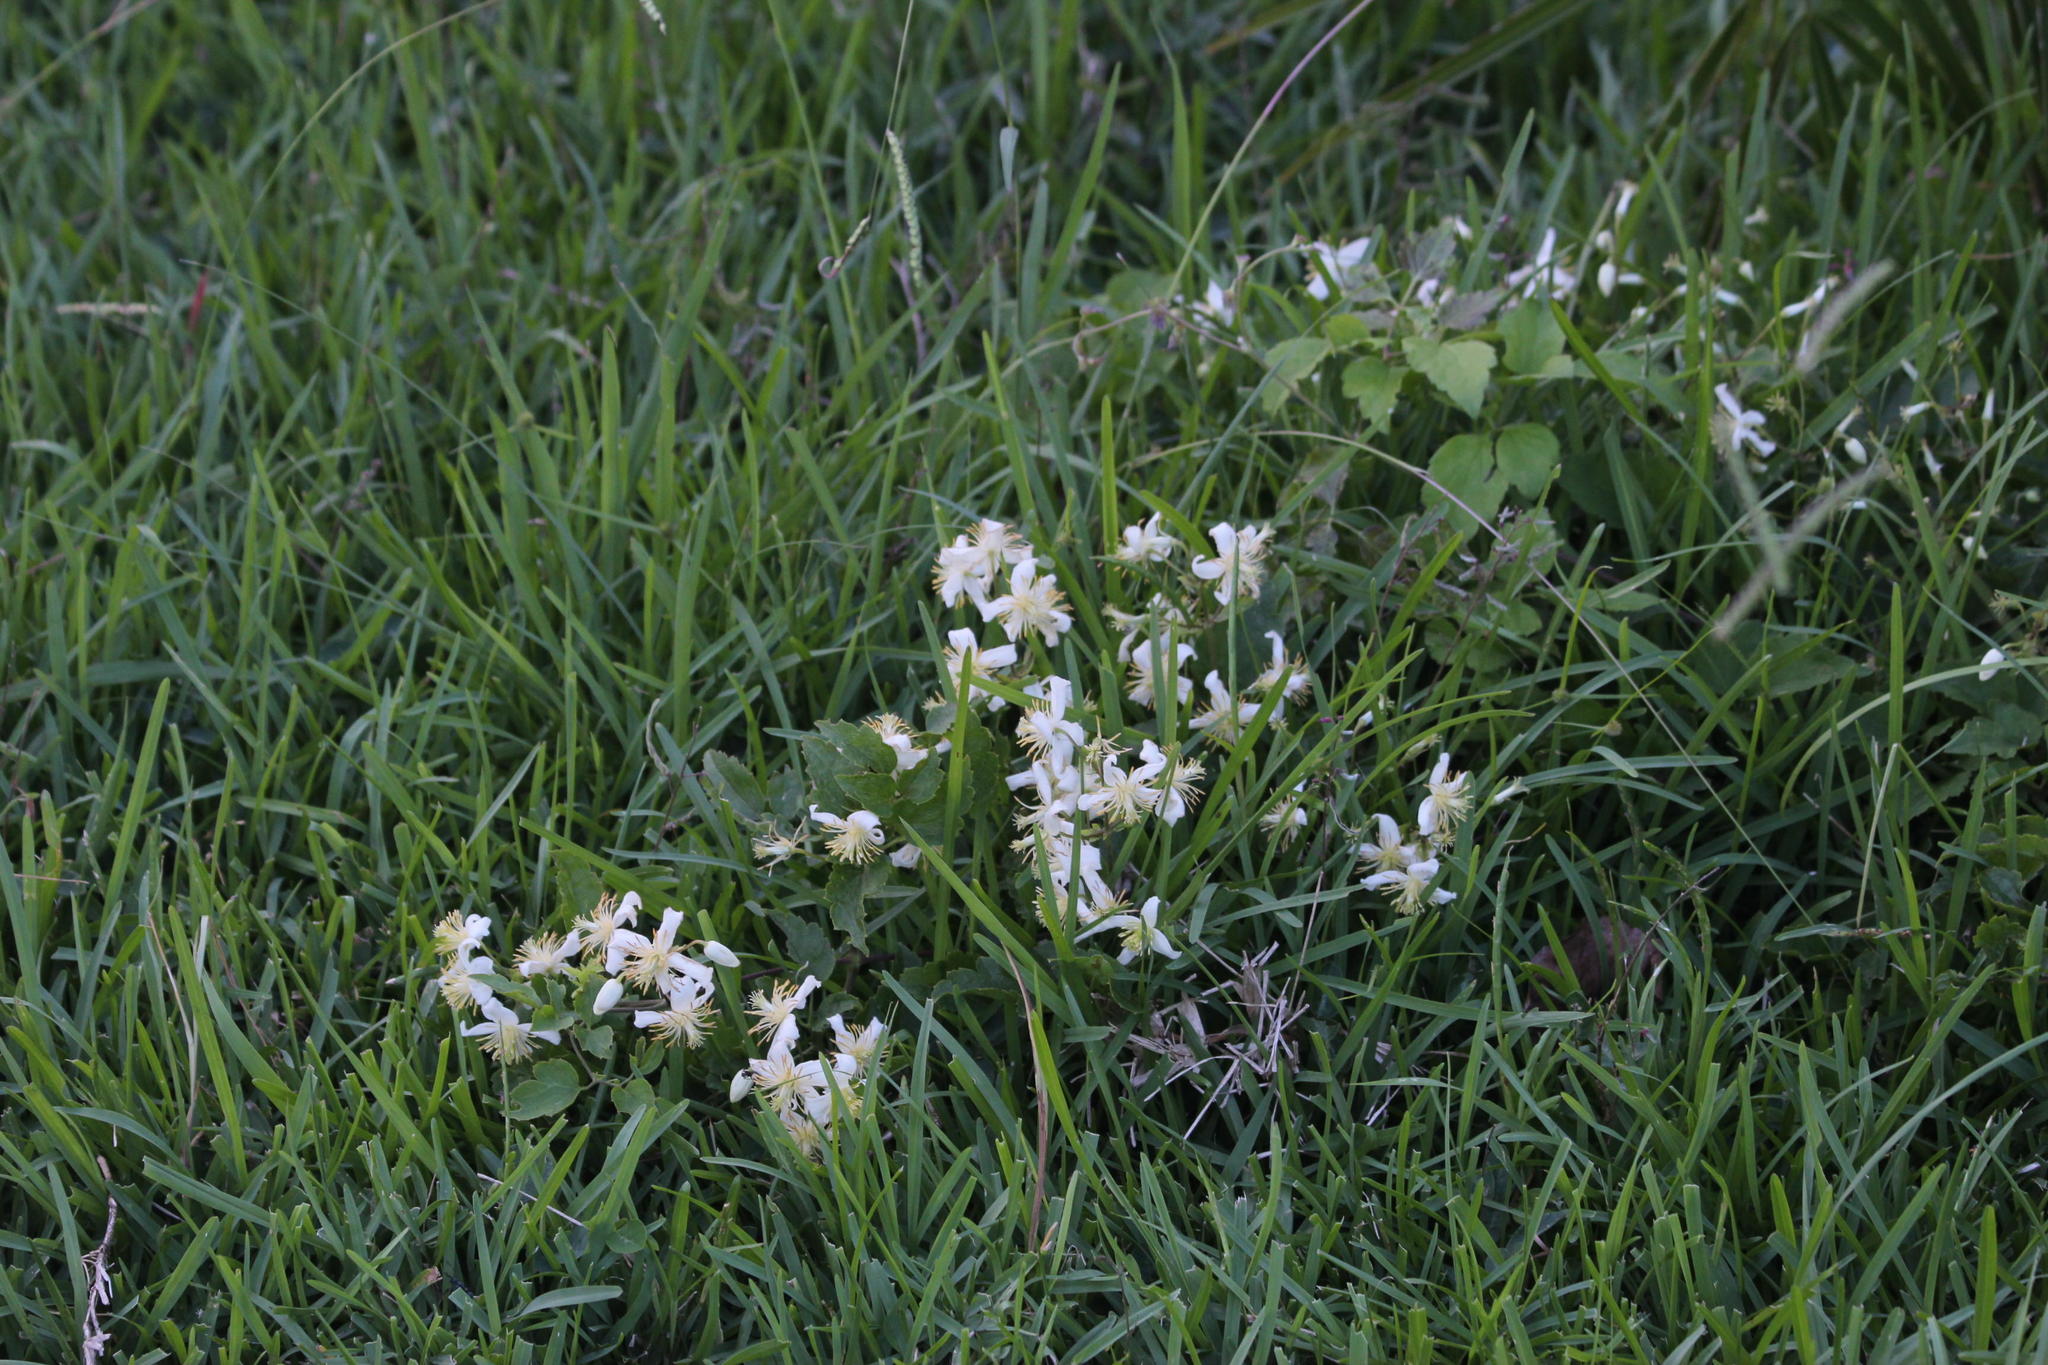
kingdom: Plantae
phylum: Tracheophyta
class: Magnoliopsida
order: Ranunculales
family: Ranunculaceae
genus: Clematis
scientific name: Clematis brachiata
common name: Traveler's-joy
